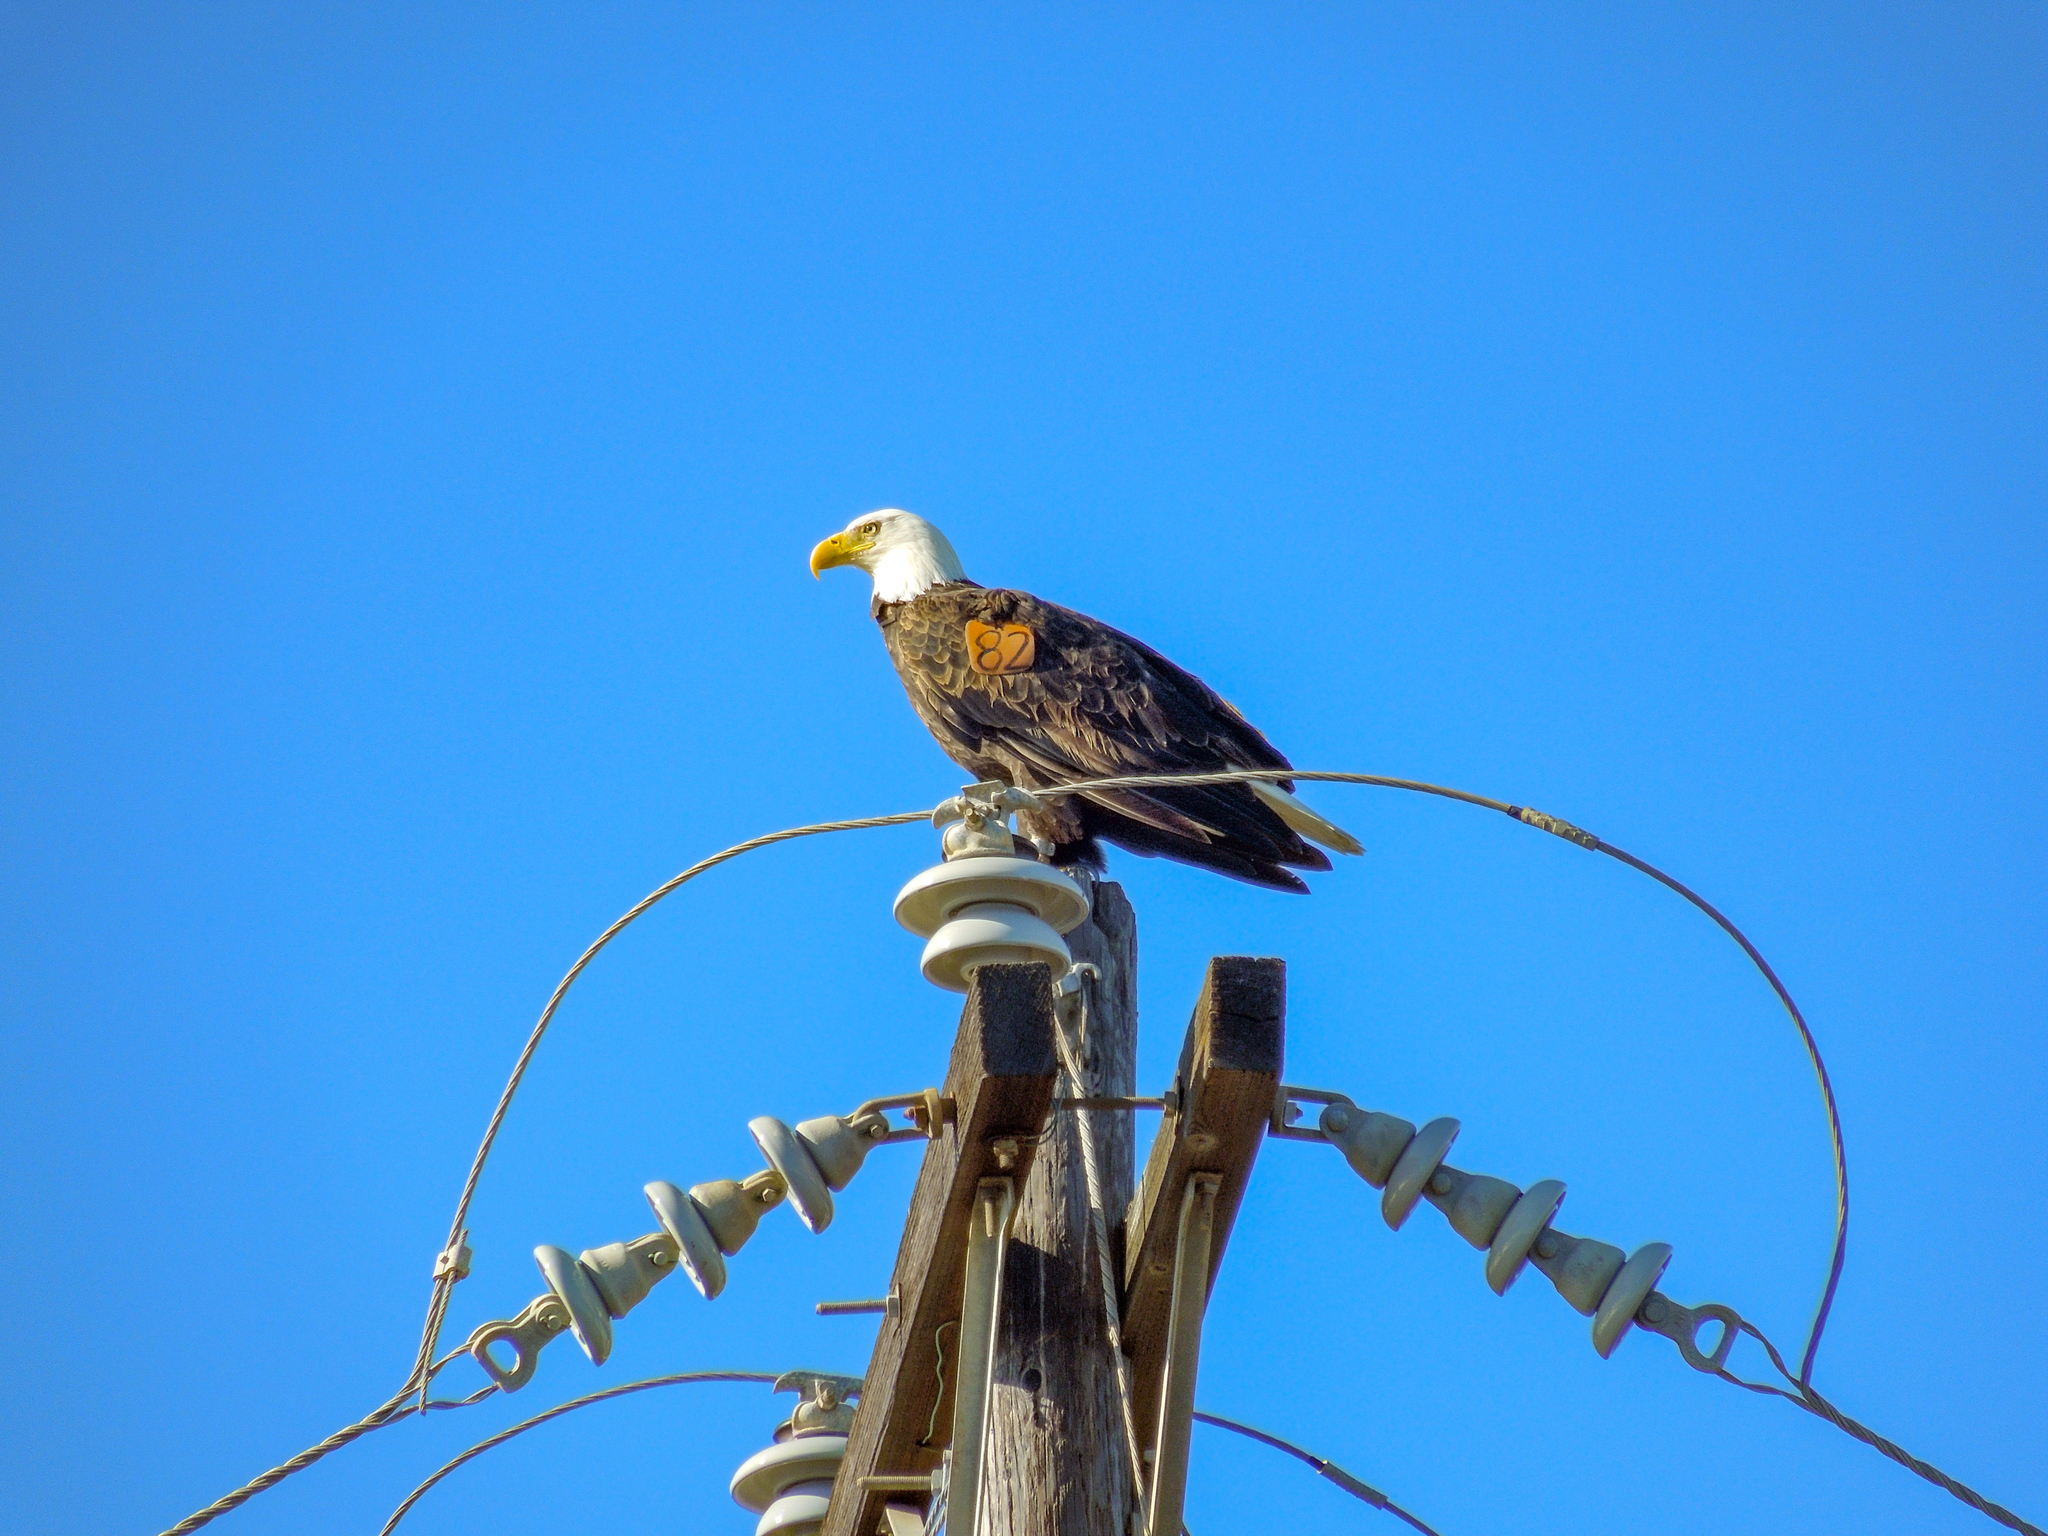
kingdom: Animalia
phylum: Chordata
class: Aves
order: Accipitriformes
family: Accipitridae
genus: Haliaeetus
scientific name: Haliaeetus leucocephalus
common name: Bald eagle
